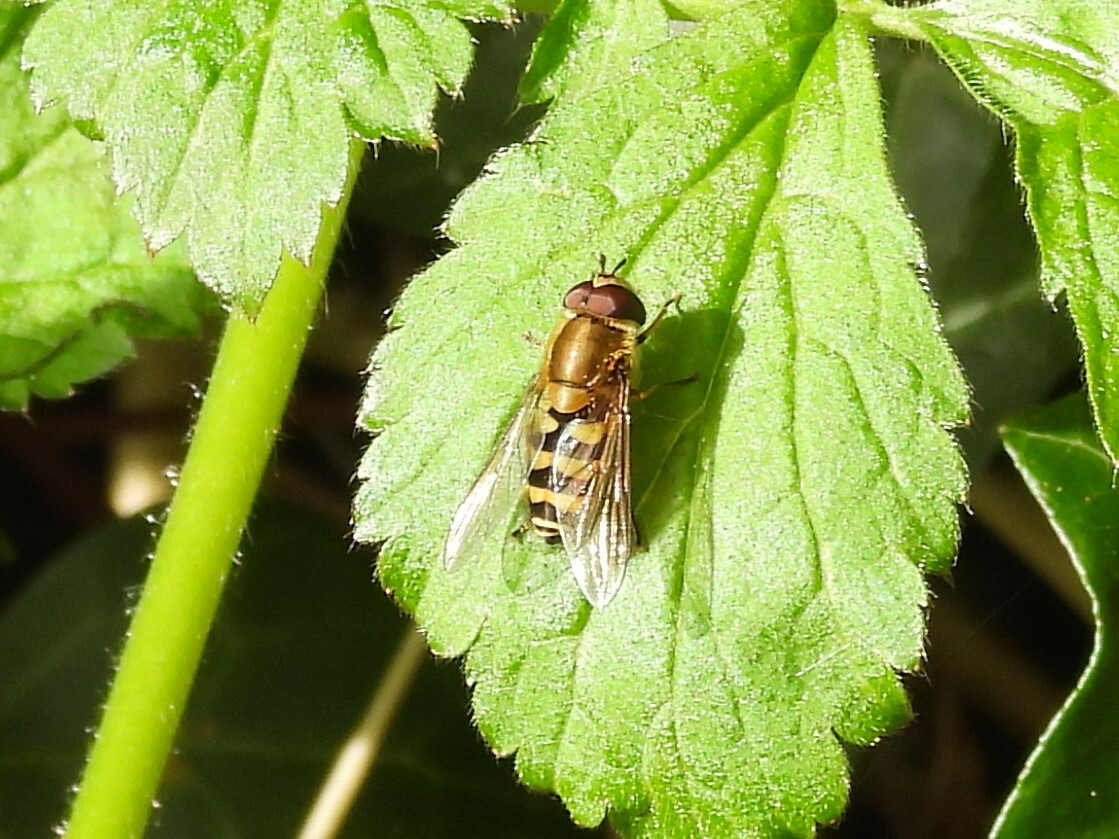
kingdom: Animalia
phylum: Arthropoda
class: Insecta
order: Diptera
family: Syrphidae
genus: Syrphus
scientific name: Syrphus
